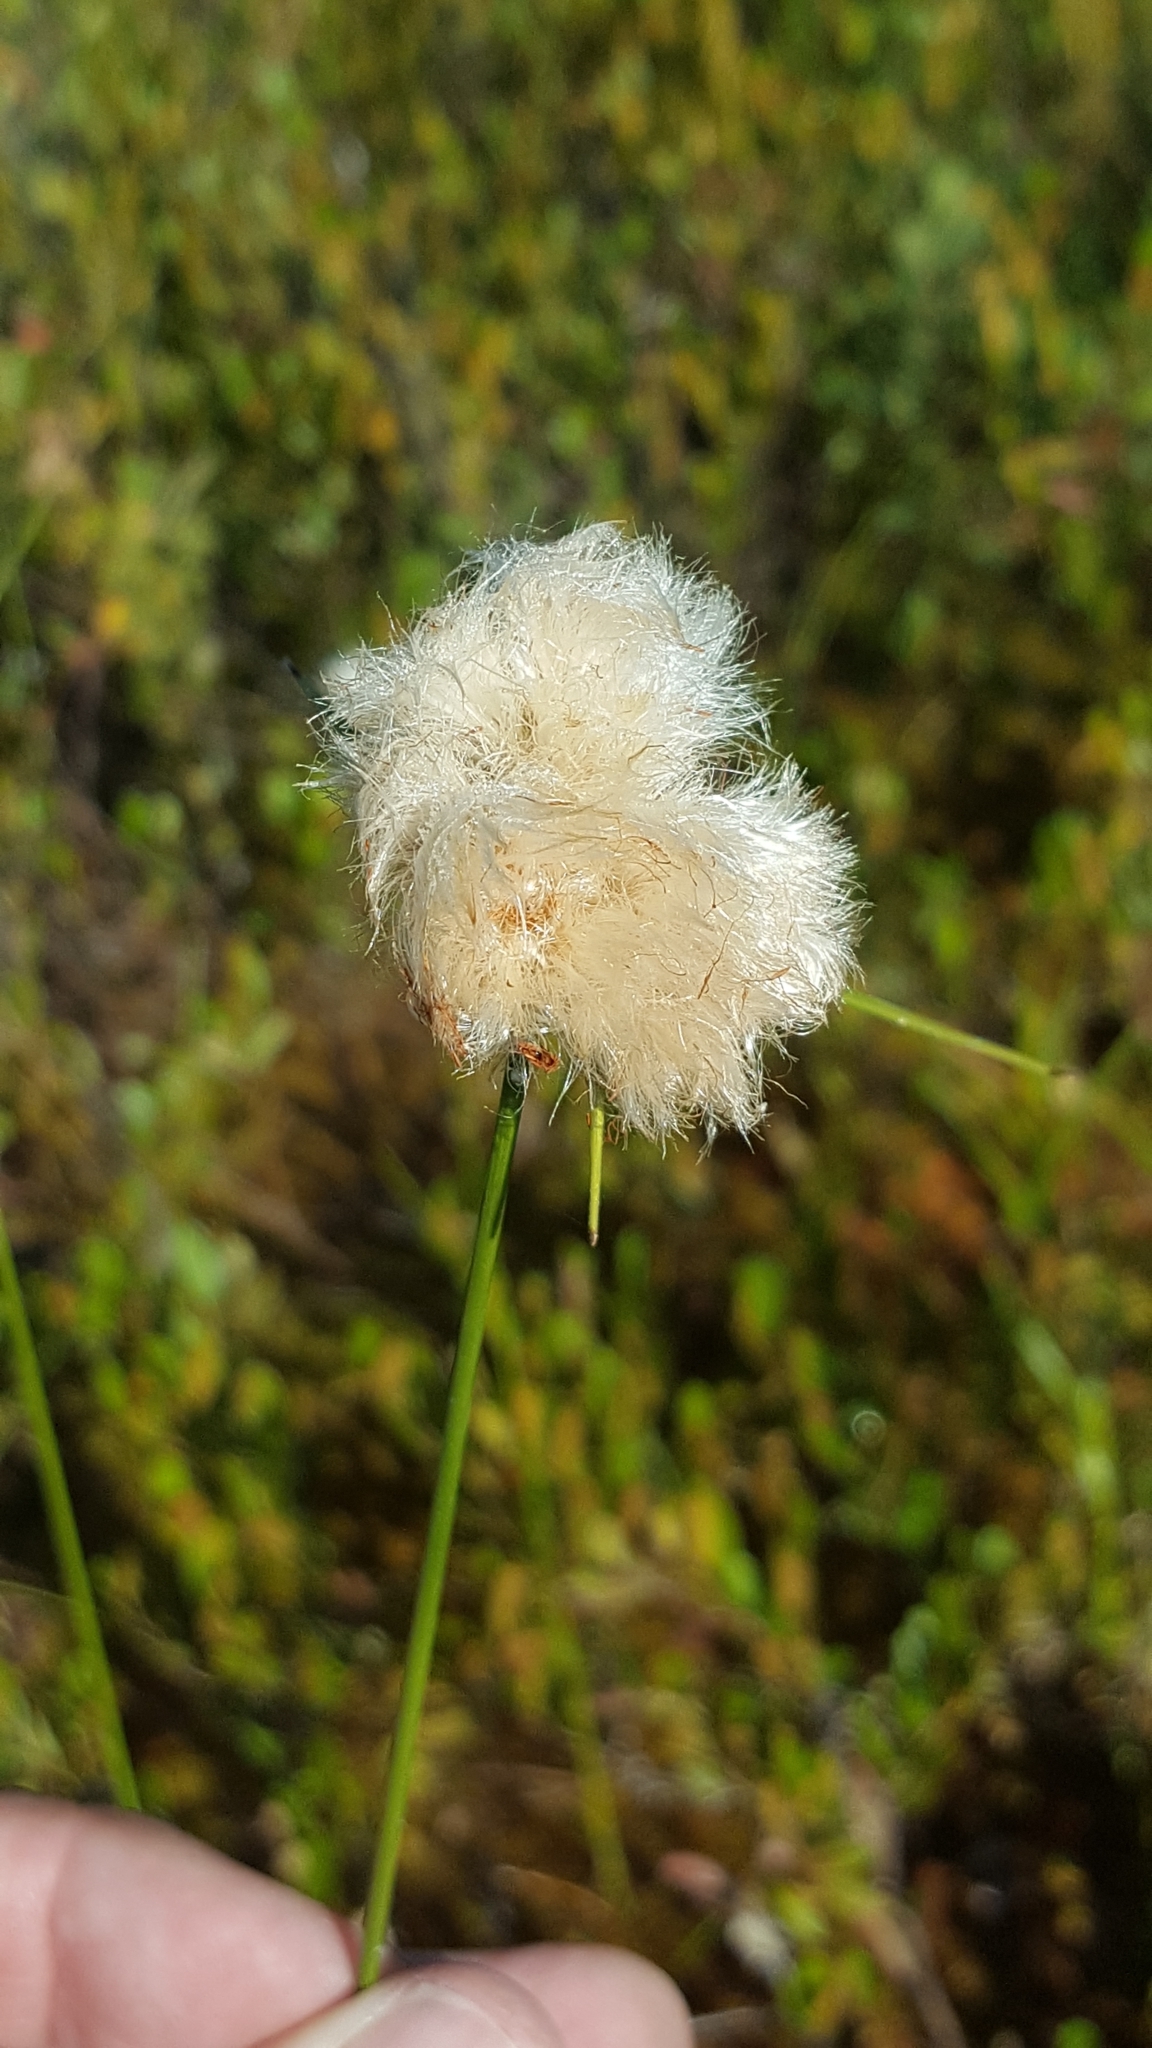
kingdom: Plantae
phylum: Tracheophyta
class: Liliopsida
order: Poales
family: Cyperaceae
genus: Eriophorum
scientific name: Eriophorum virginicum
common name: Tawny cottongrass
